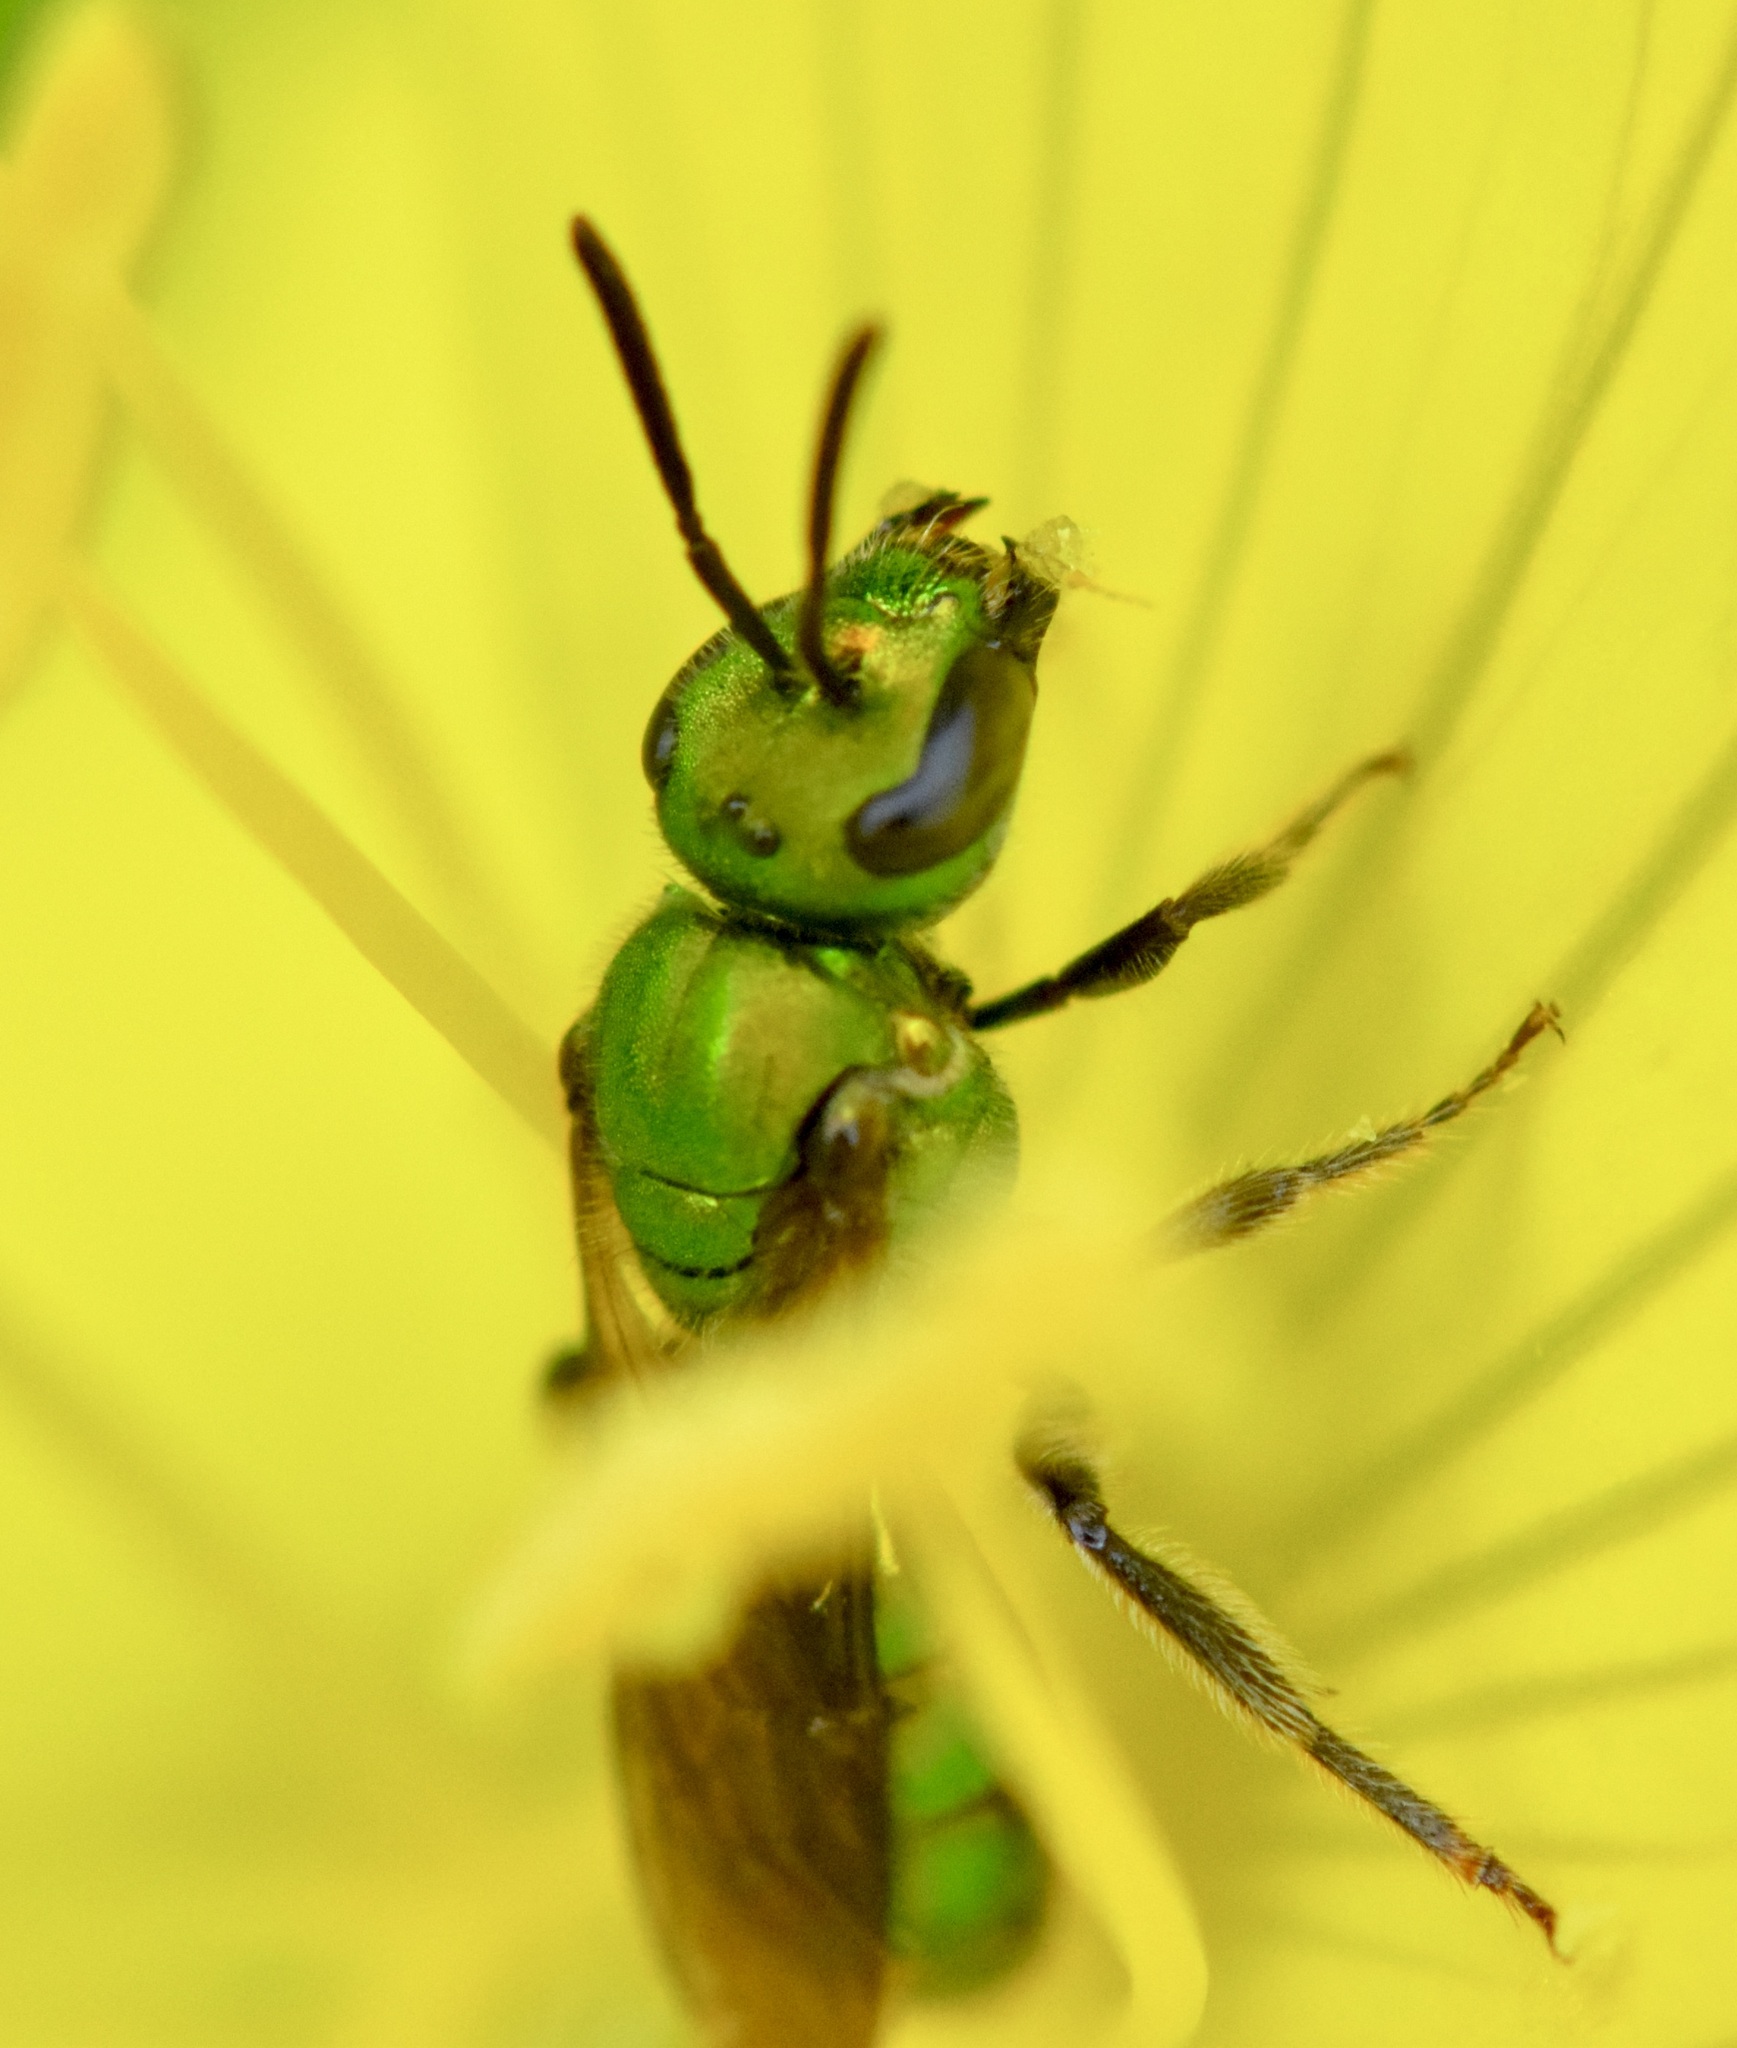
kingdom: Animalia
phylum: Arthropoda
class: Insecta
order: Hymenoptera
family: Halictidae
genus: Augochlora
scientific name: Augochlora pura
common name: Pure green sweat bee
